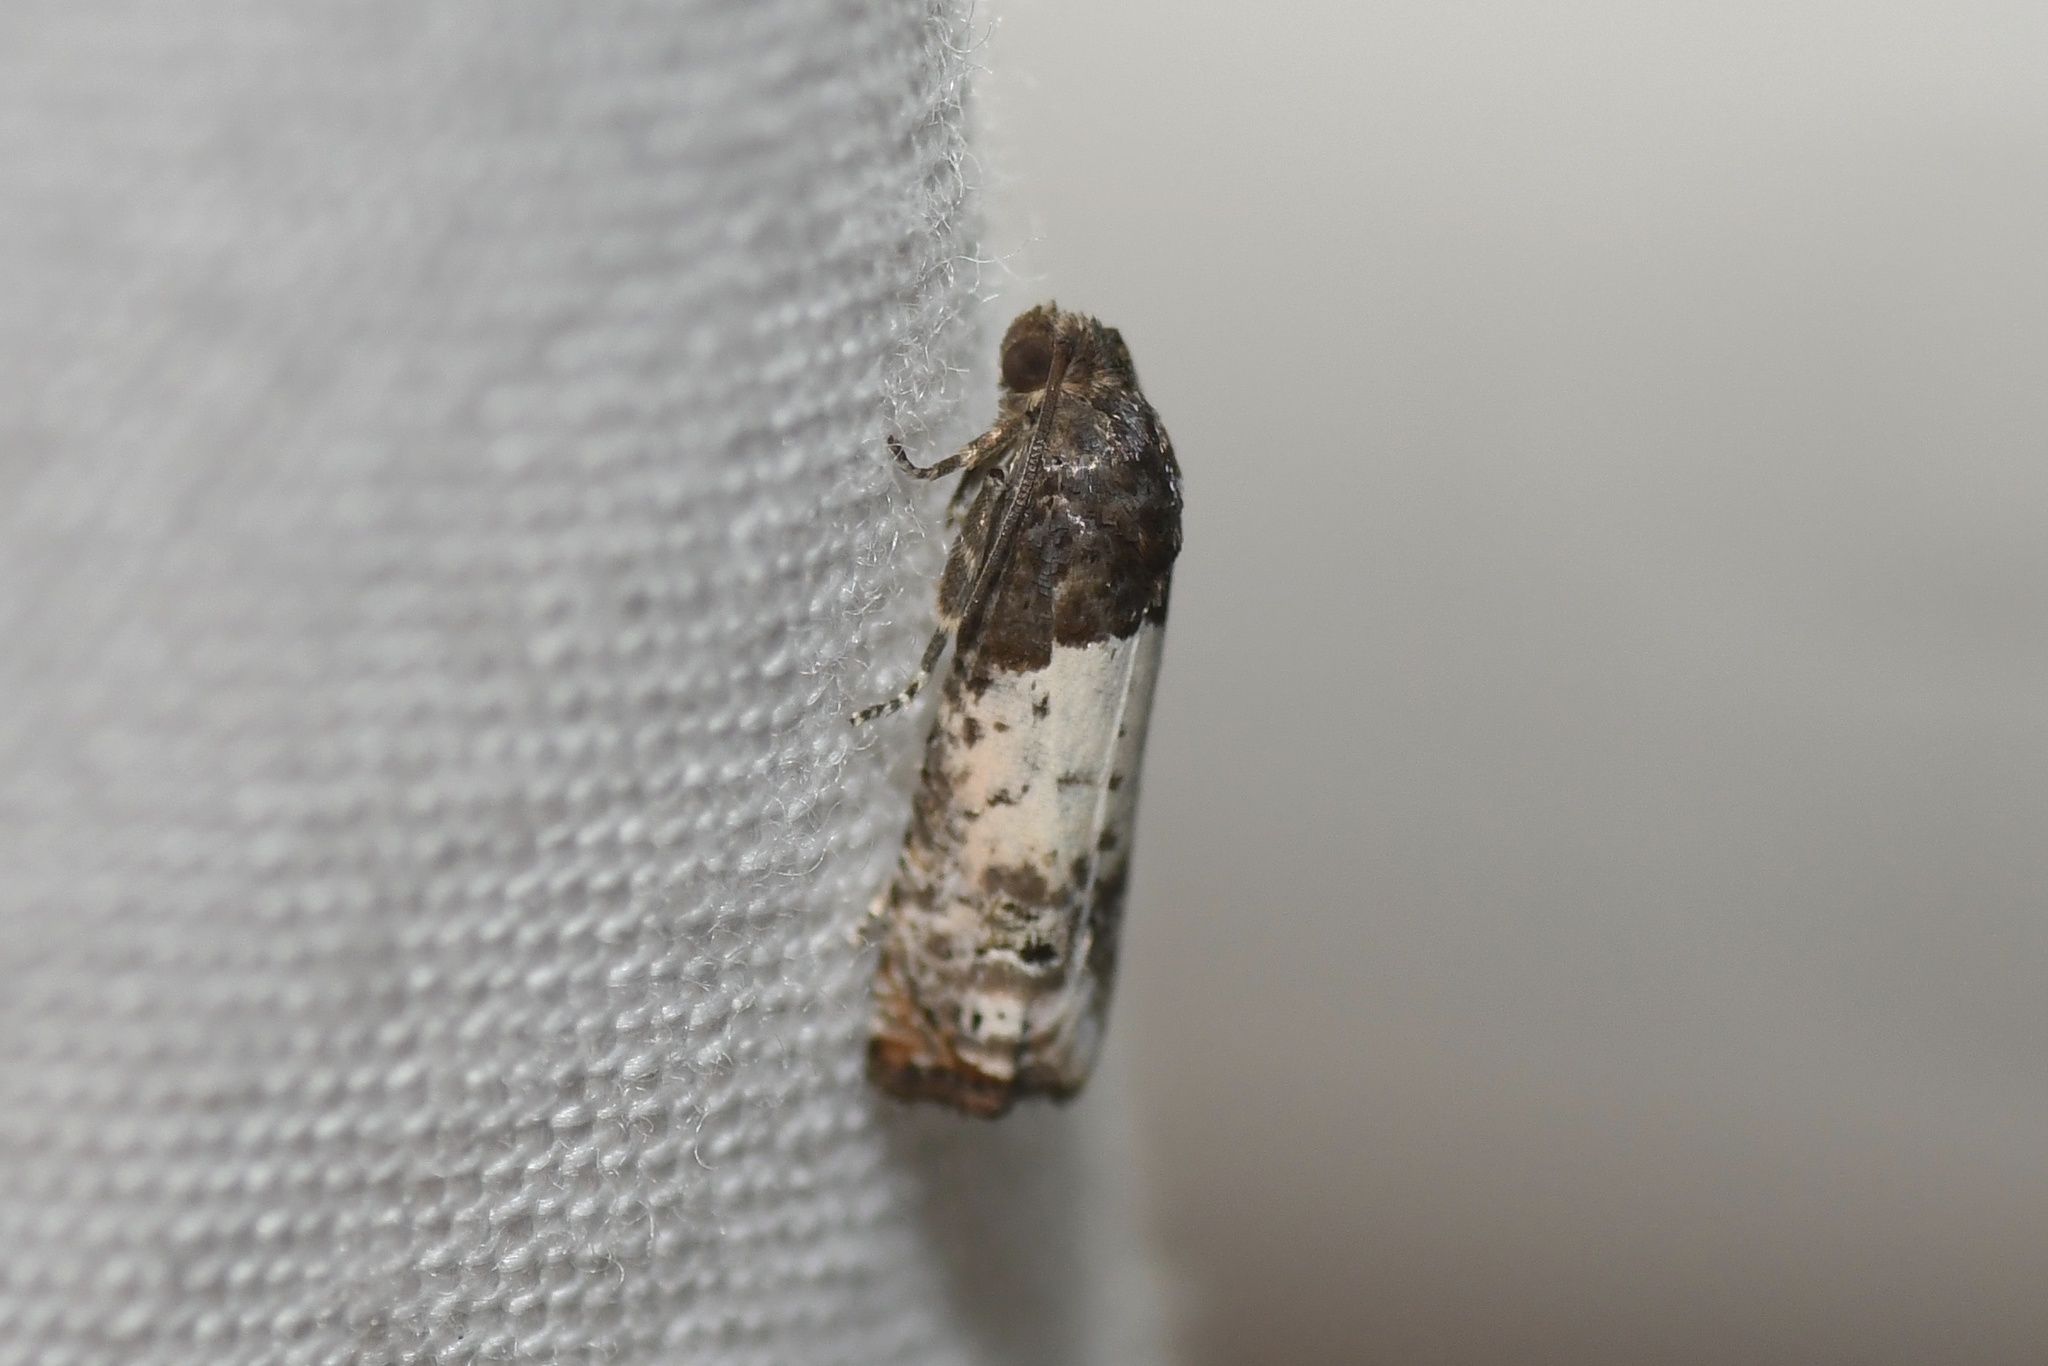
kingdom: Animalia
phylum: Arthropoda
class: Insecta
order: Lepidoptera
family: Tortricidae
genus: Epiblema
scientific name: Epiblema scudderiana
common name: Goldenrod gall moth
